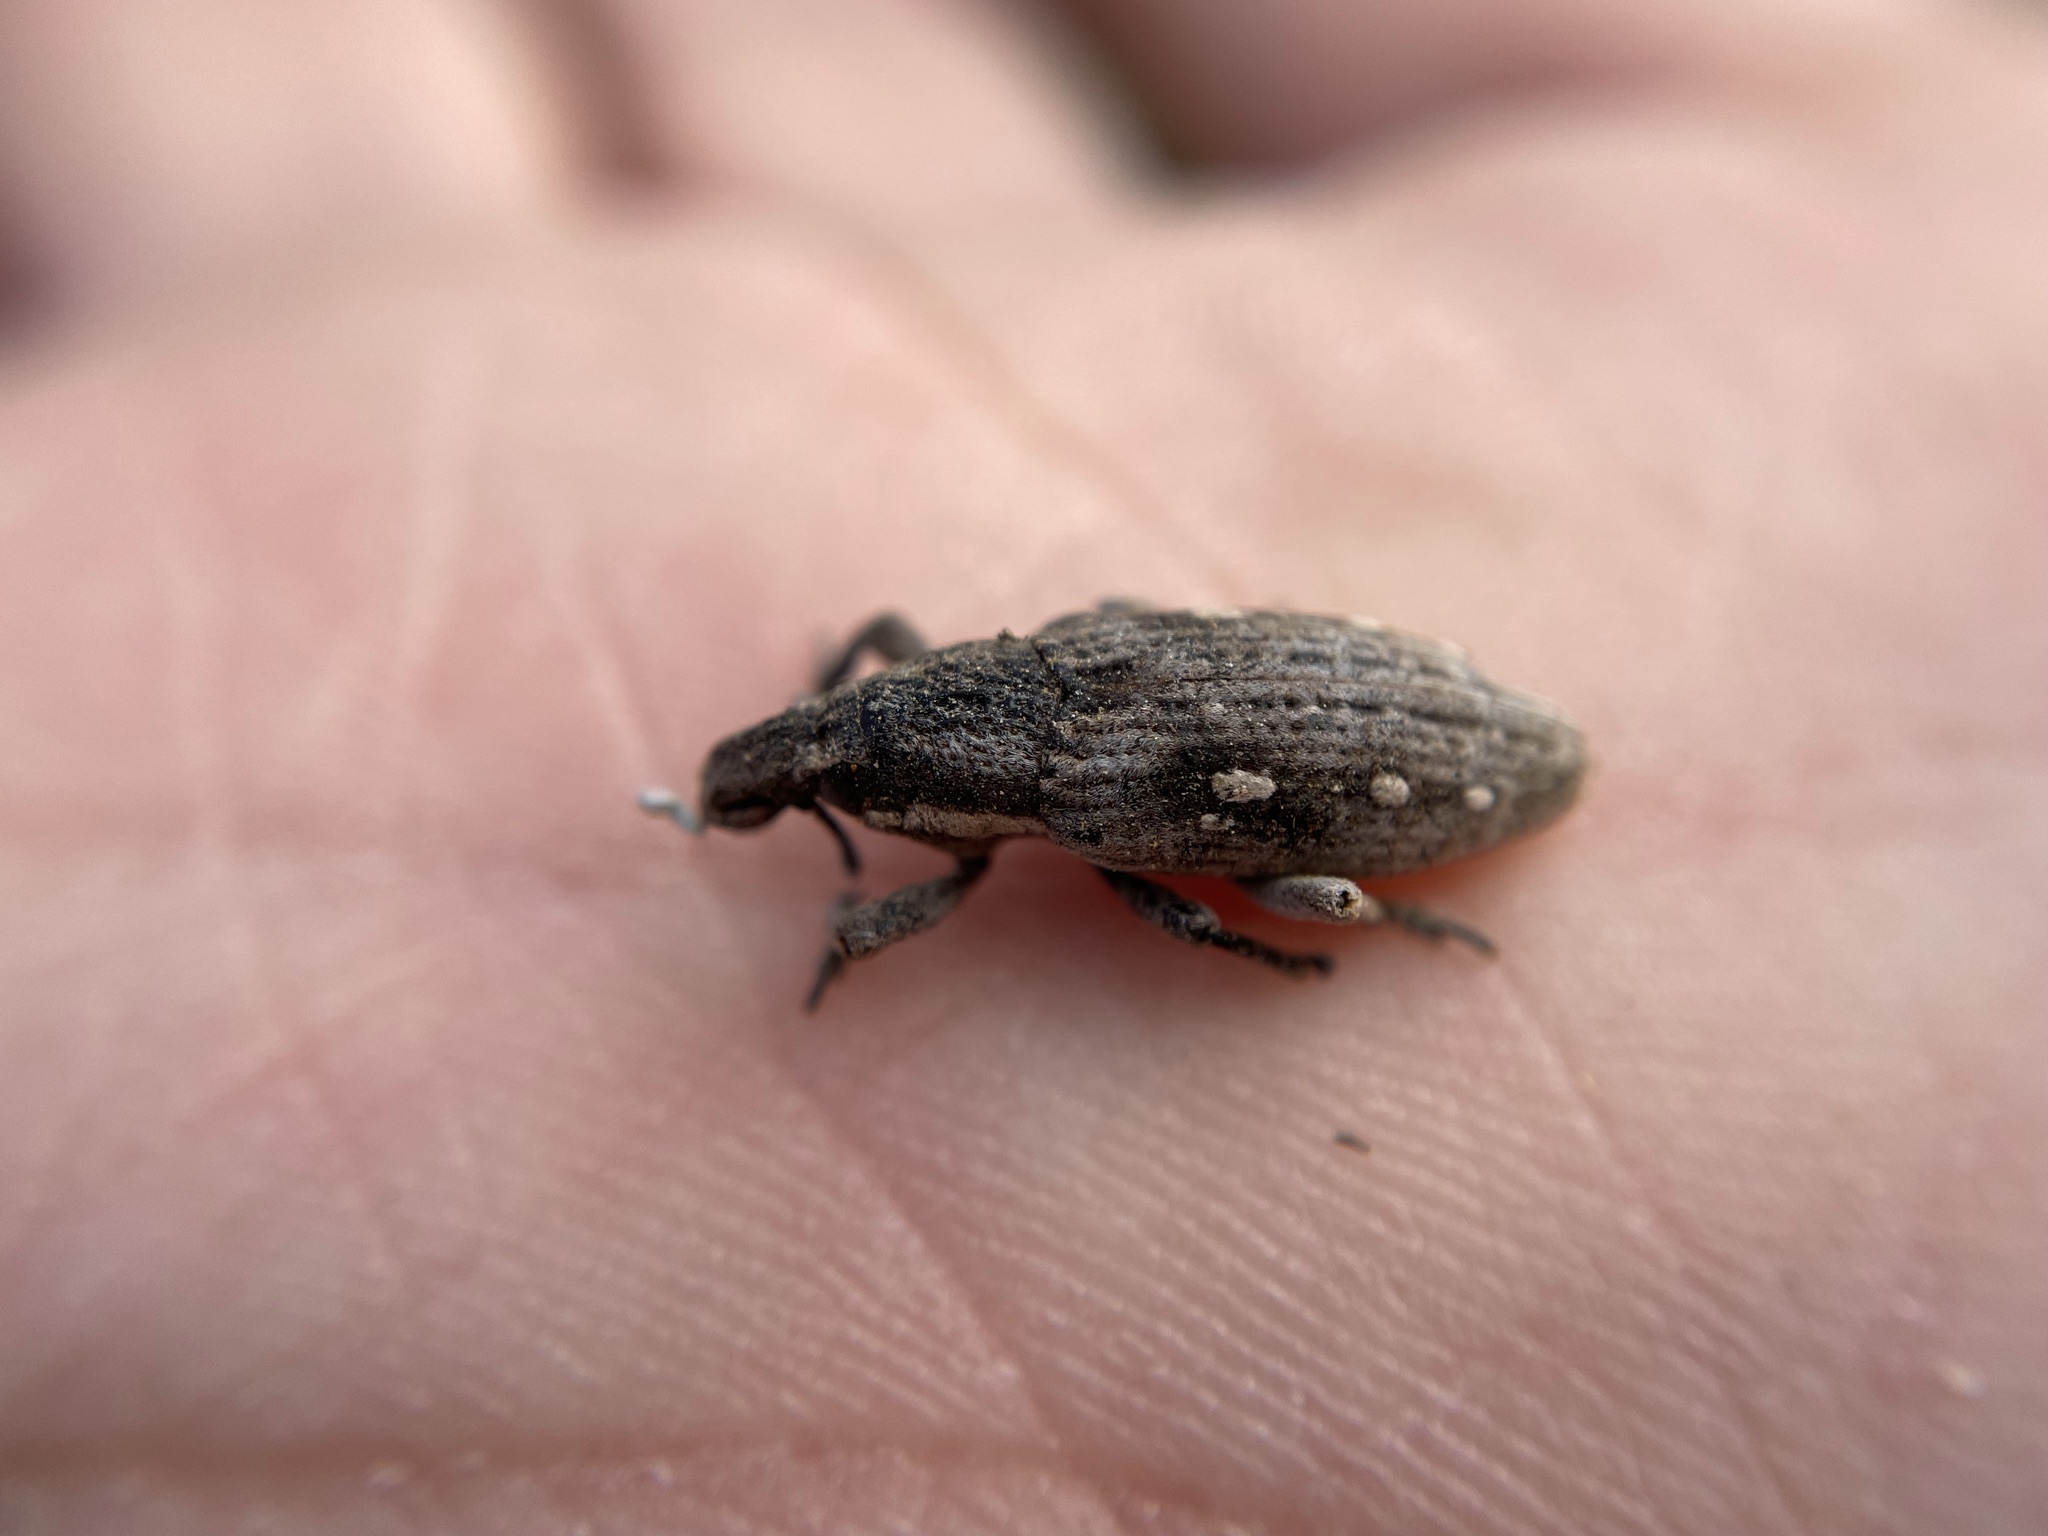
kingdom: Animalia
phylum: Arthropoda
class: Insecta
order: Coleoptera
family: Curculionidae
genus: Prionorhinus
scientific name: Prionorhinus canus
